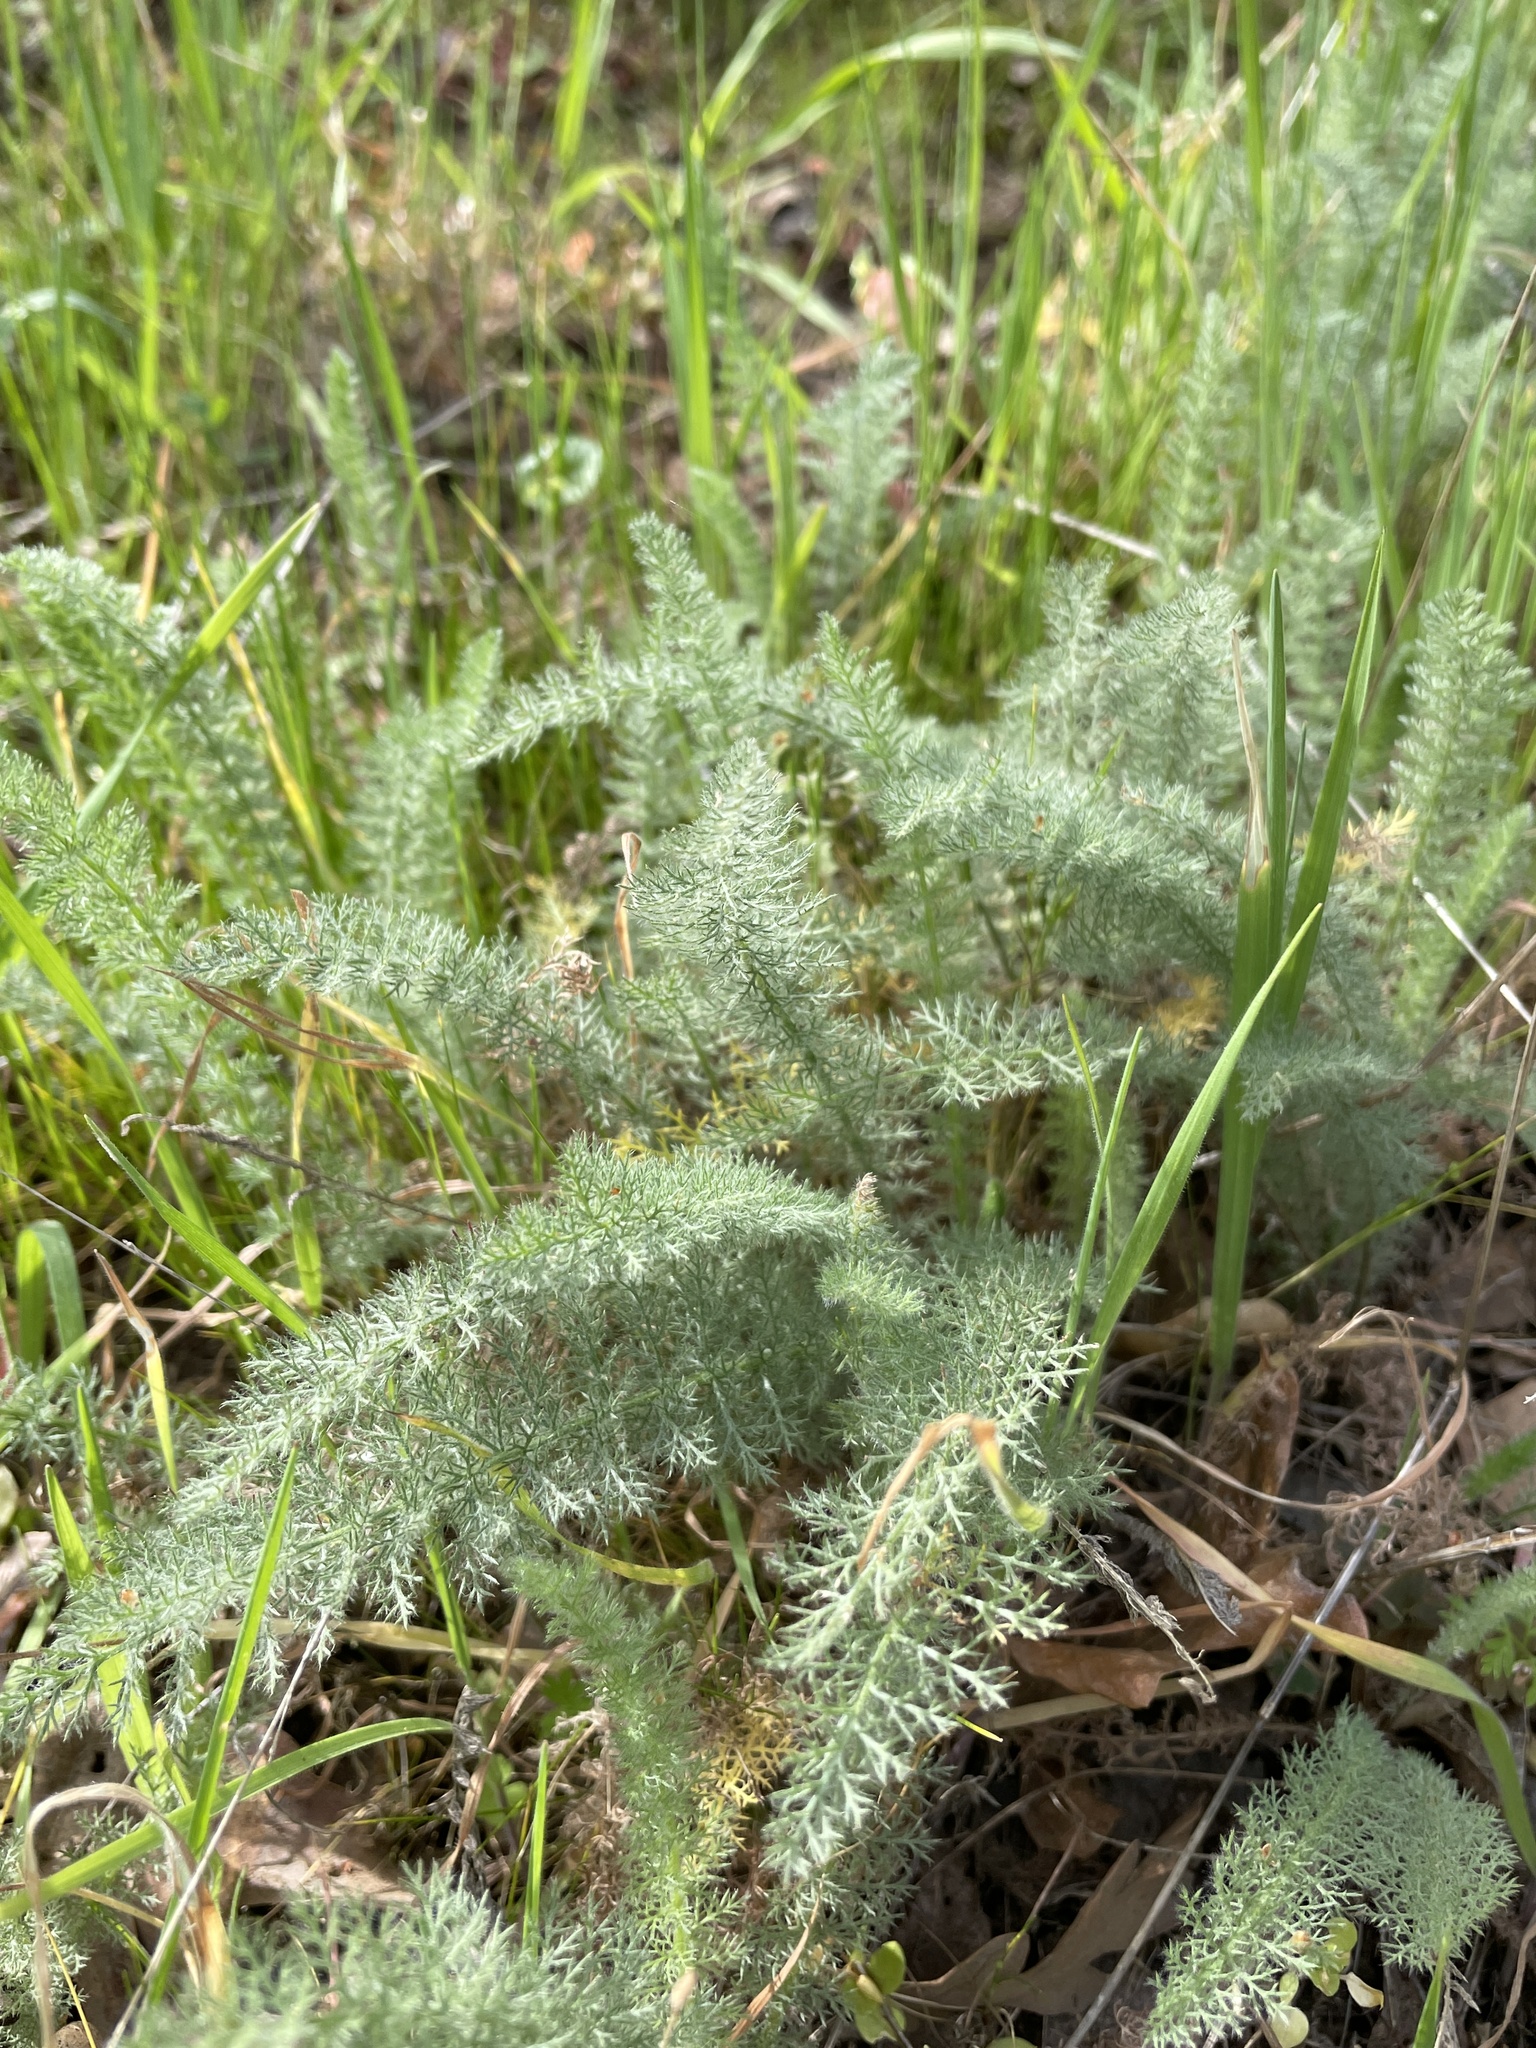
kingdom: Plantae
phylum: Tracheophyta
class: Magnoliopsida
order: Asterales
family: Asteraceae
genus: Achillea
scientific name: Achillea millefolium
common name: Yarrow
